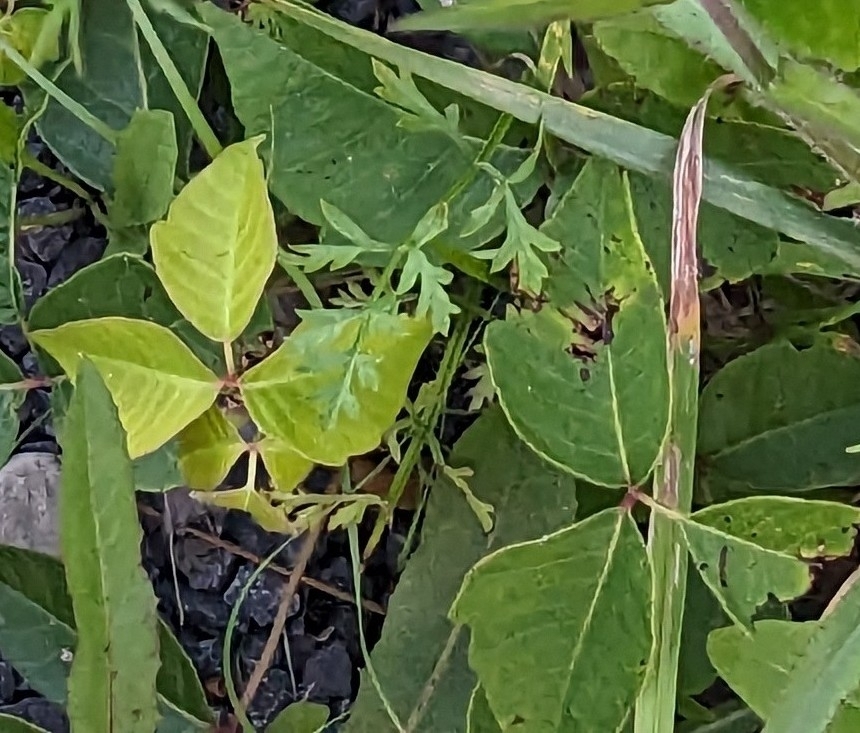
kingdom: Plantae
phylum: Tracheophyta
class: Magnoliopsida
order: Sapindales
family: Anacardiaceae
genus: Toxicodendron
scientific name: Toxicodendron radicans
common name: Poison ivy
